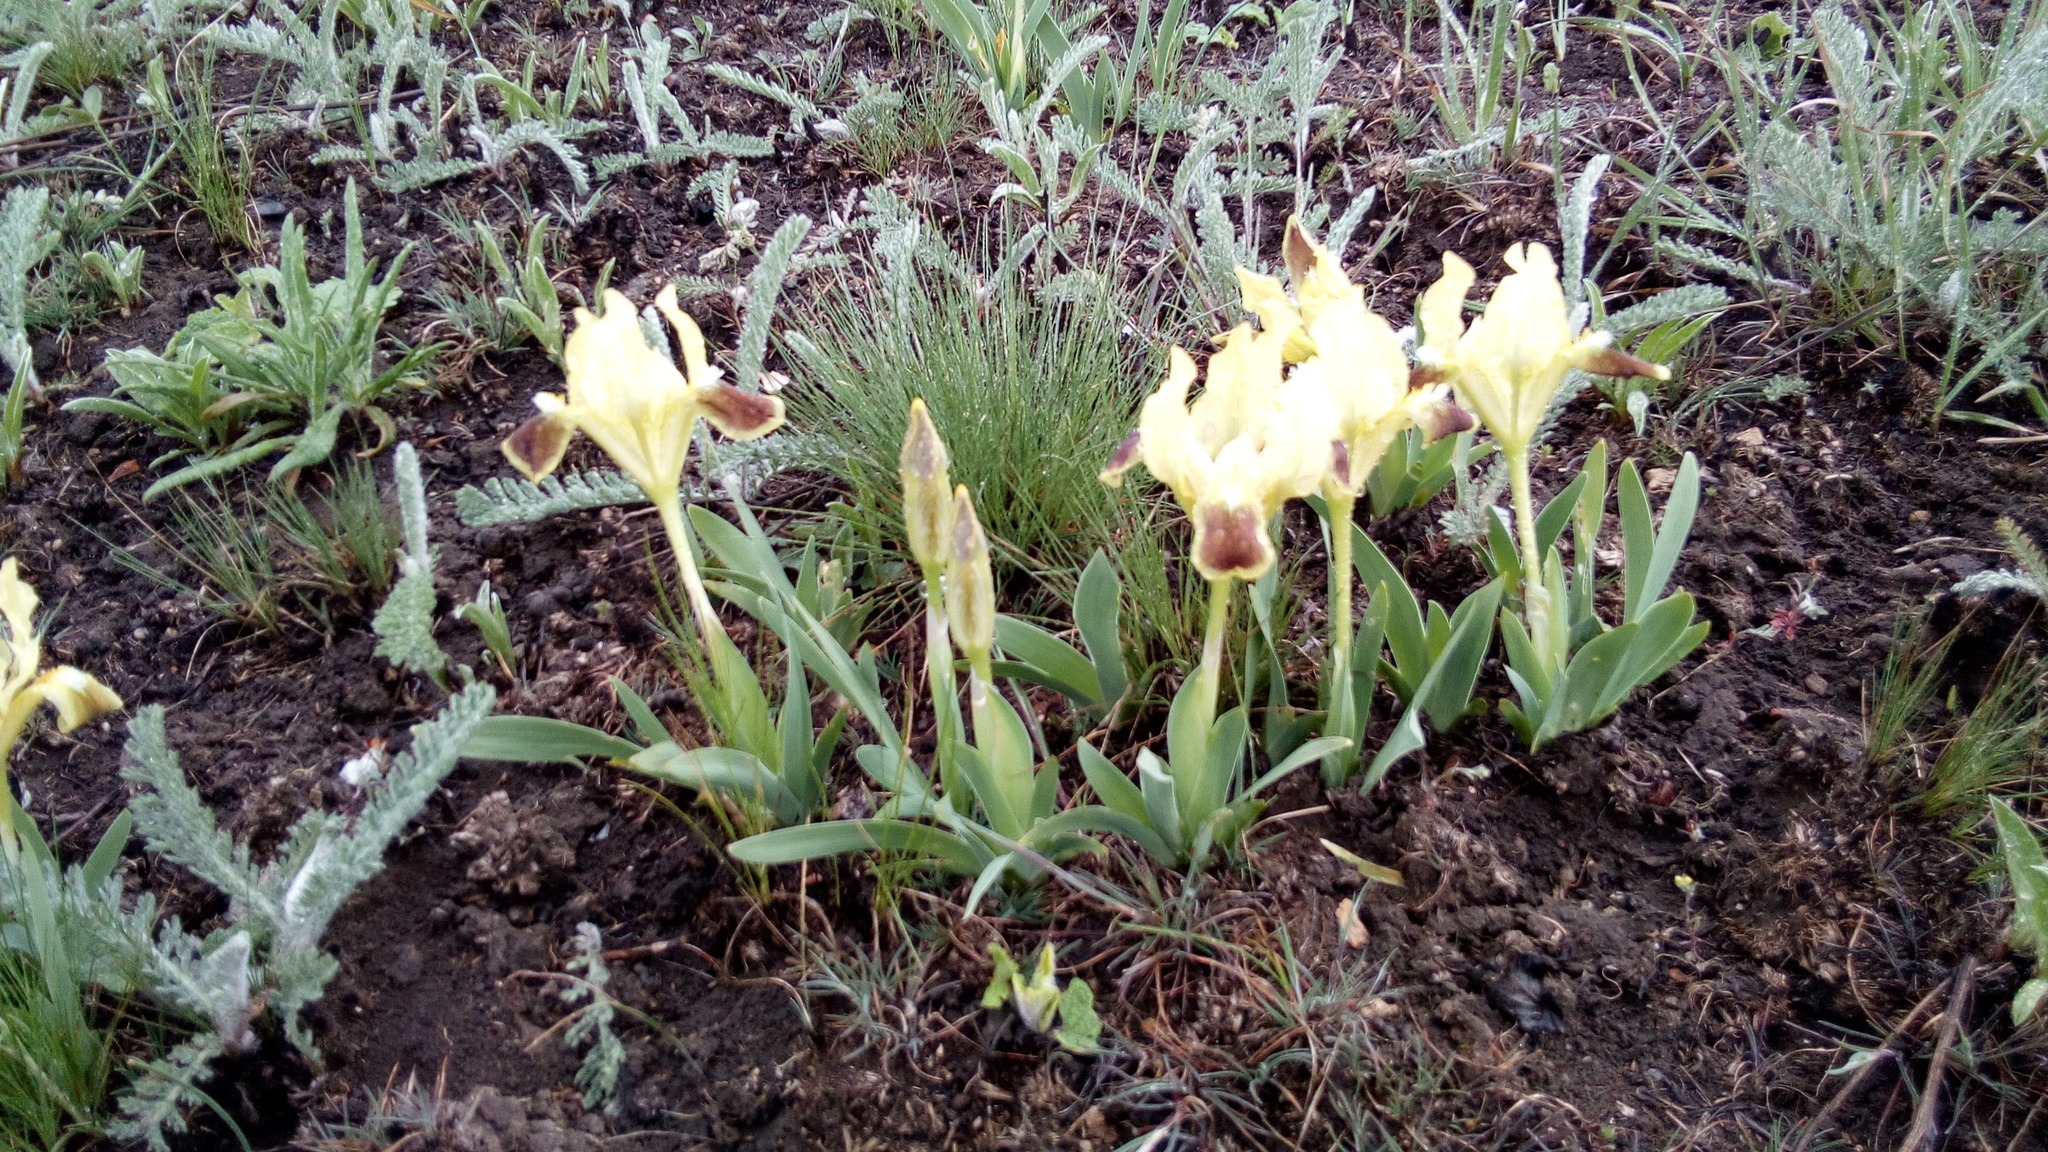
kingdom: Plantae
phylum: Tracheophyta
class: Liliopsida
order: Asparagales
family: Iridaceae
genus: Iris
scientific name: Iris pumila
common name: Dwarf iris
